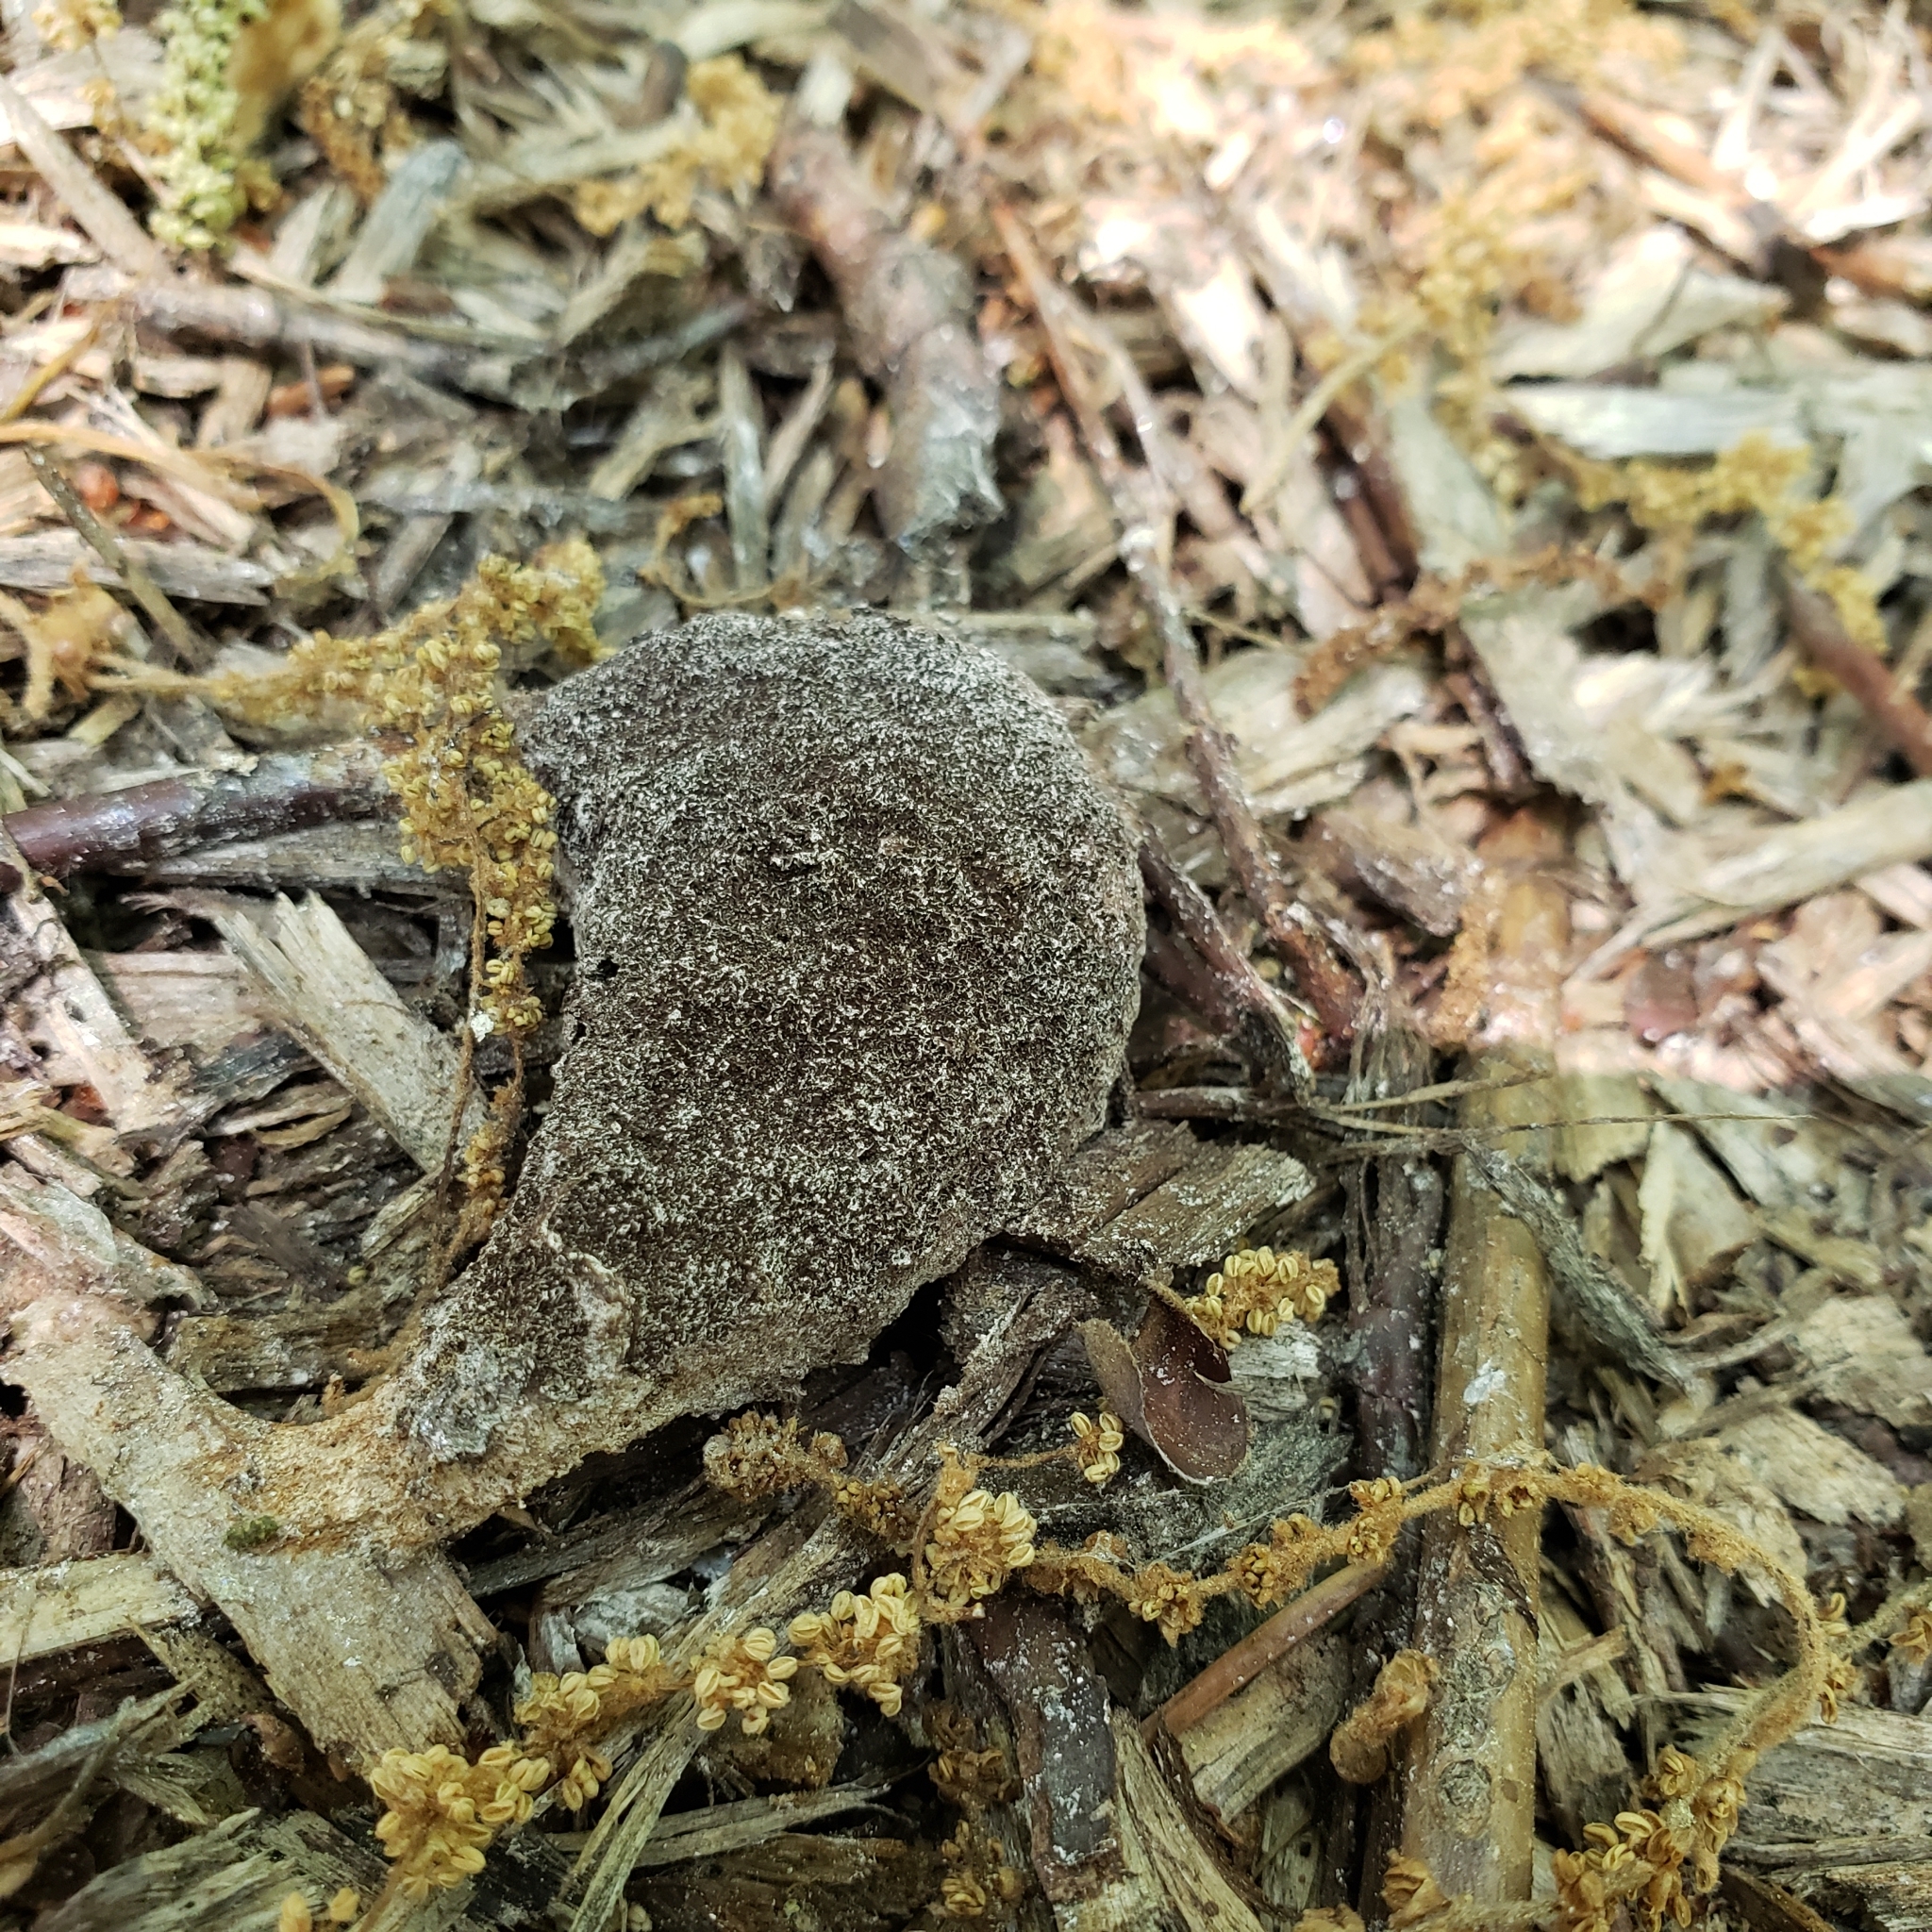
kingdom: Fungi
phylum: Ascomycota
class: Sordariomycetes
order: Hypocreales
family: Bionectriaceae
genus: Nectriopsis
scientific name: Nectriopsis violacea
